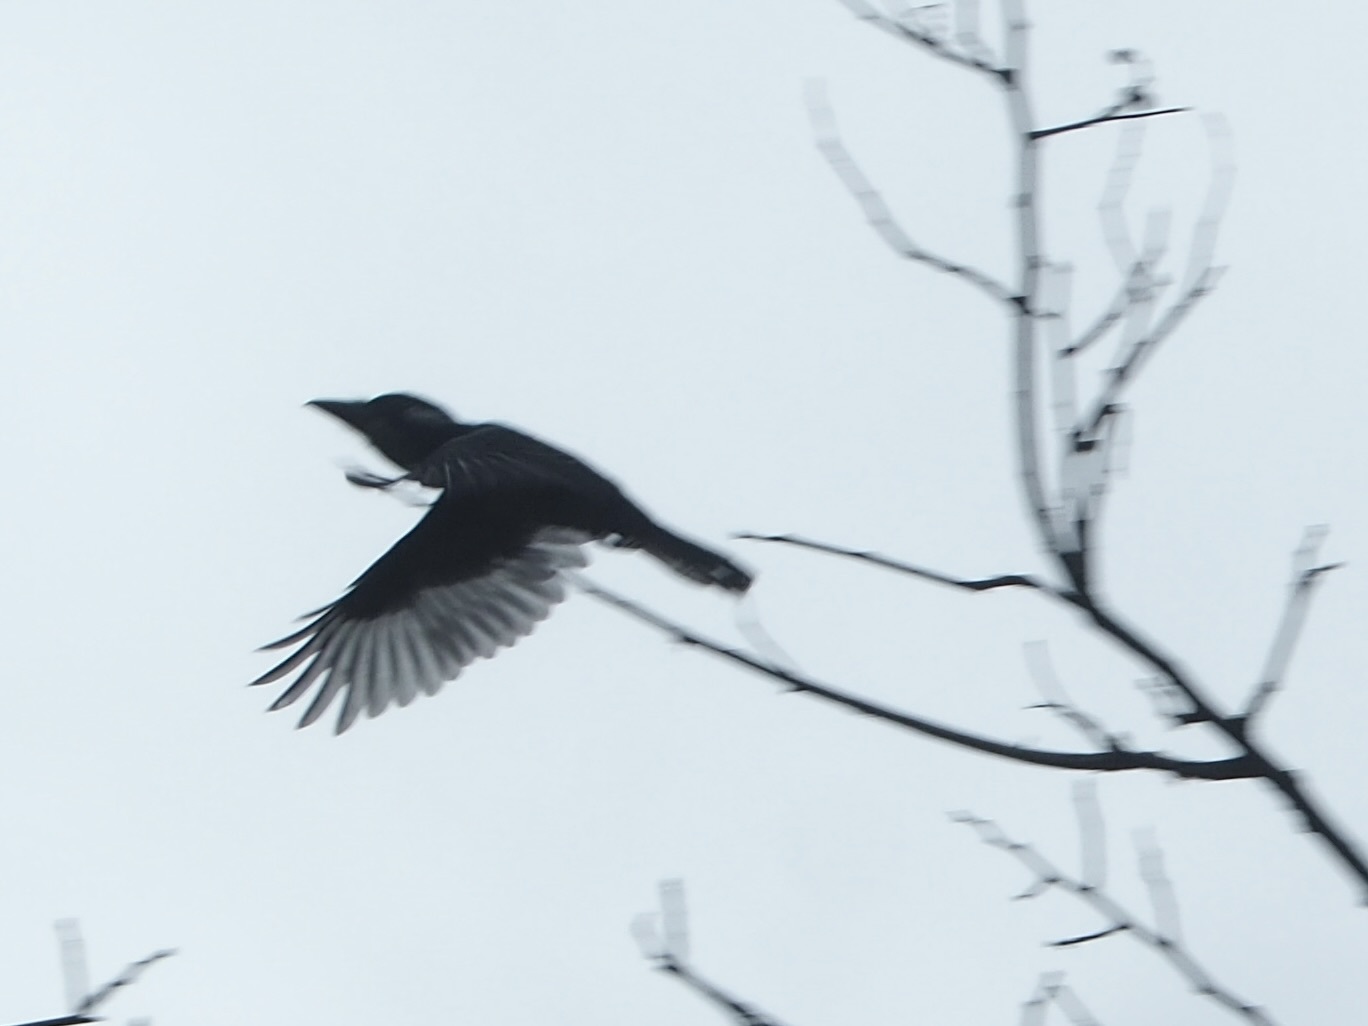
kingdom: Animalia
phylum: Chordata
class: Aves
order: Piciformes
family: Bucconidae
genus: Notharchus
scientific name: Notharchus pectoralis
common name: Black-breasted puffbird
